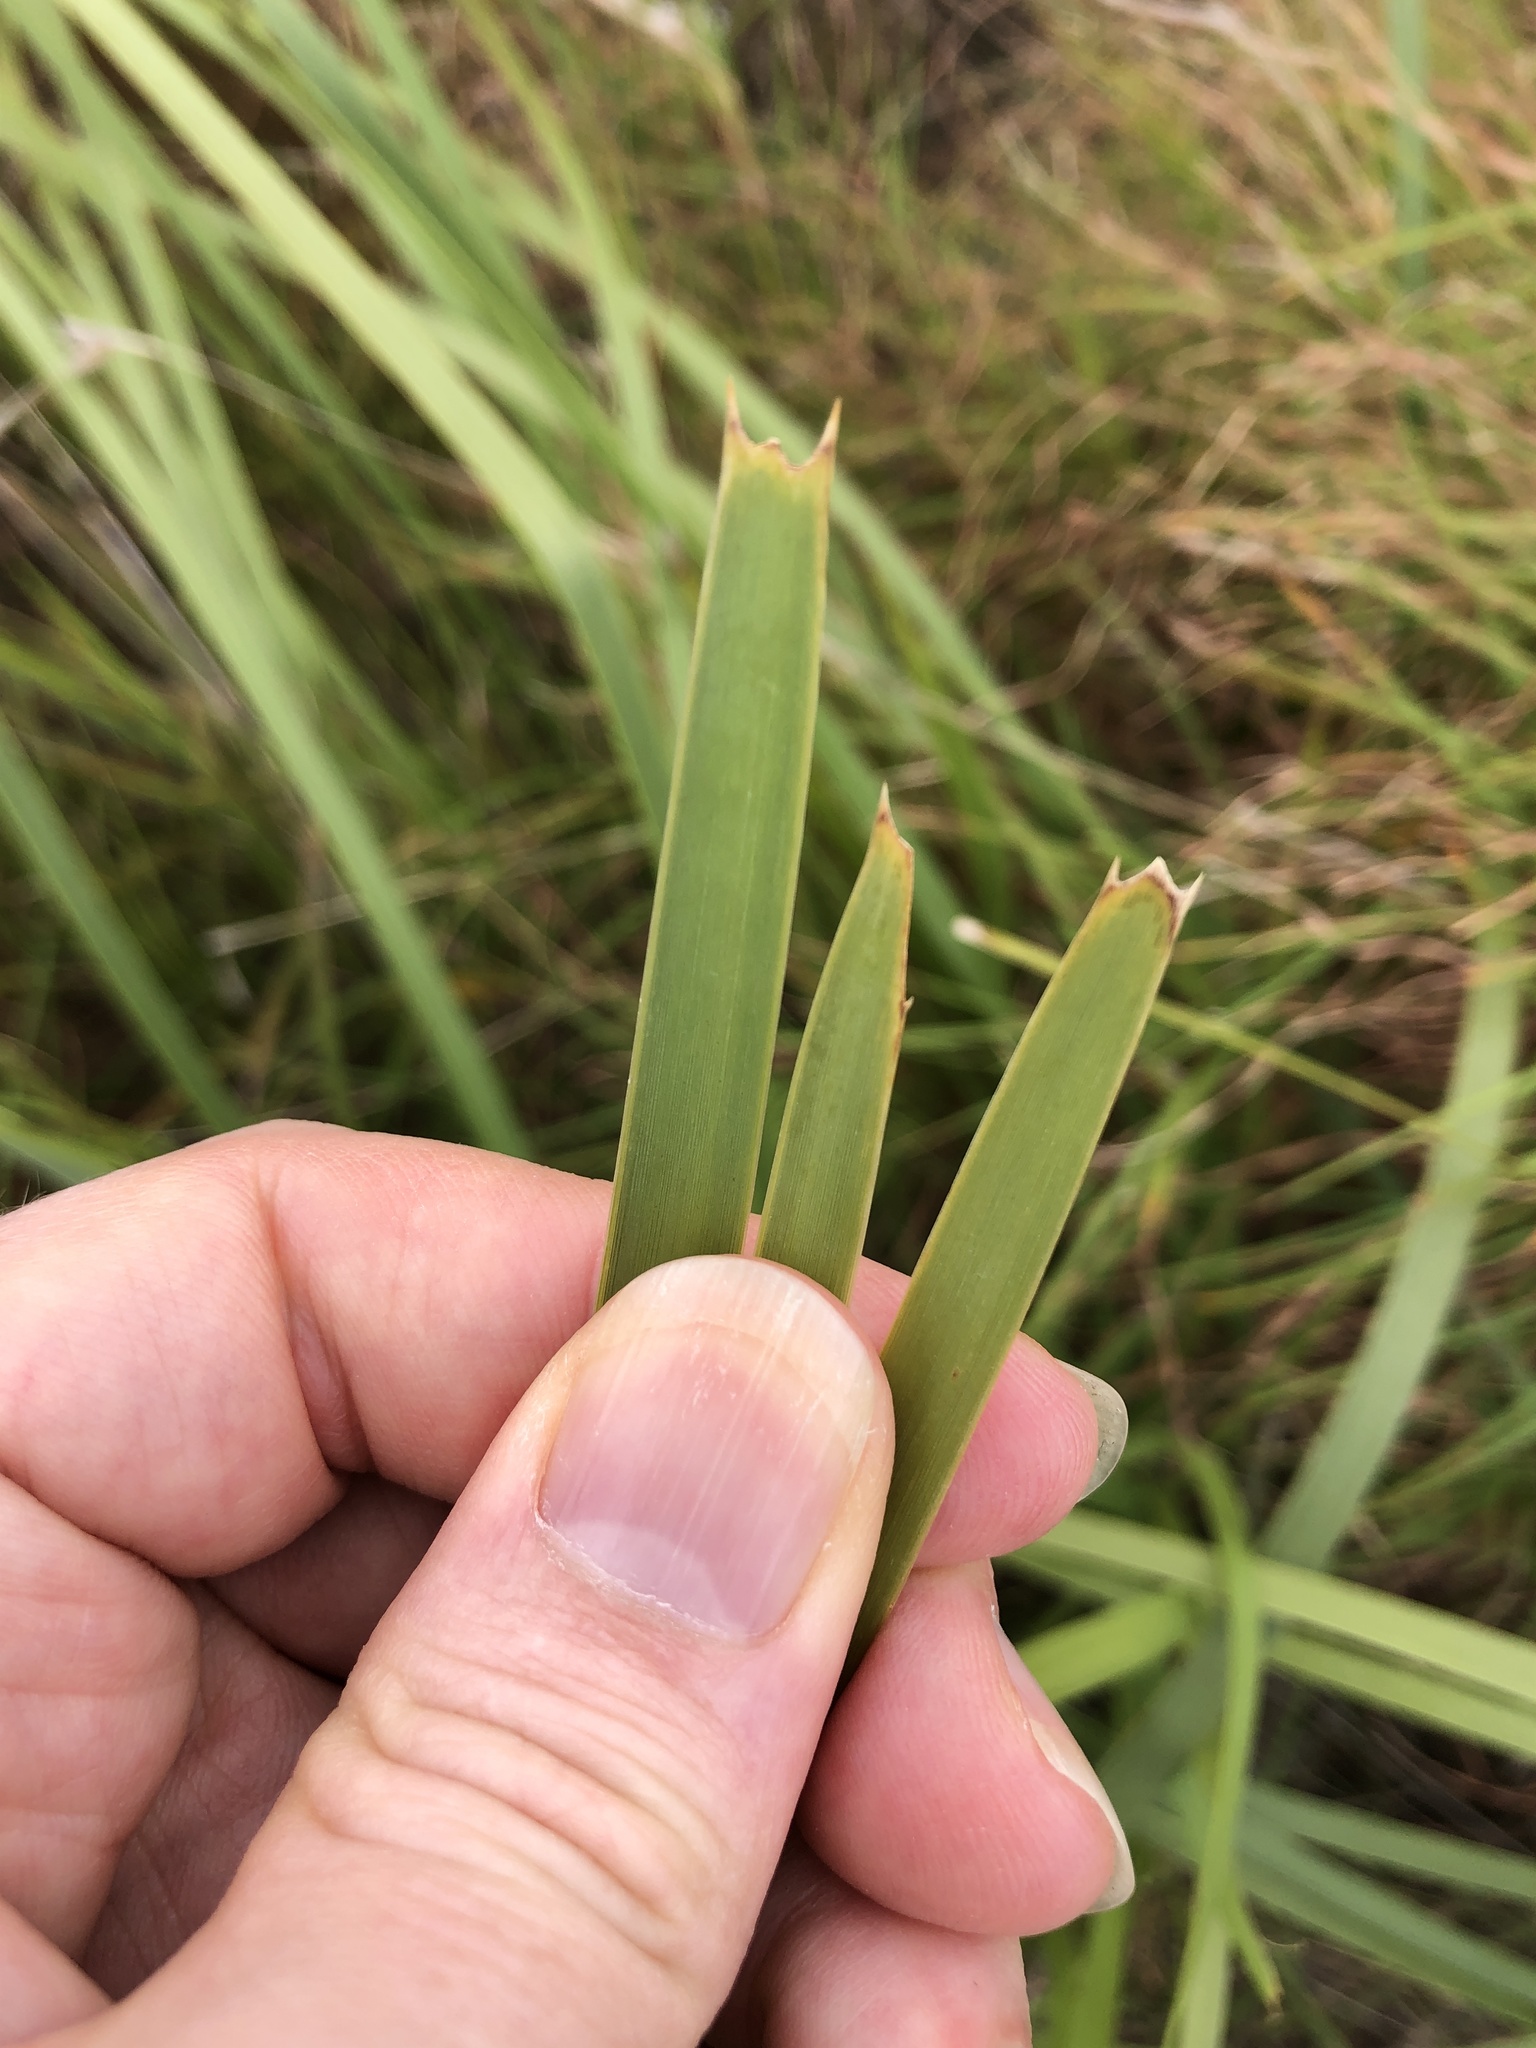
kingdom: Plantae
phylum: Tracheophyta
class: Liliopsida
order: Asparagales
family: Asparagaceae
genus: Lomandra
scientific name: Lomandra longifolia
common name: Longleaf mat-rush
